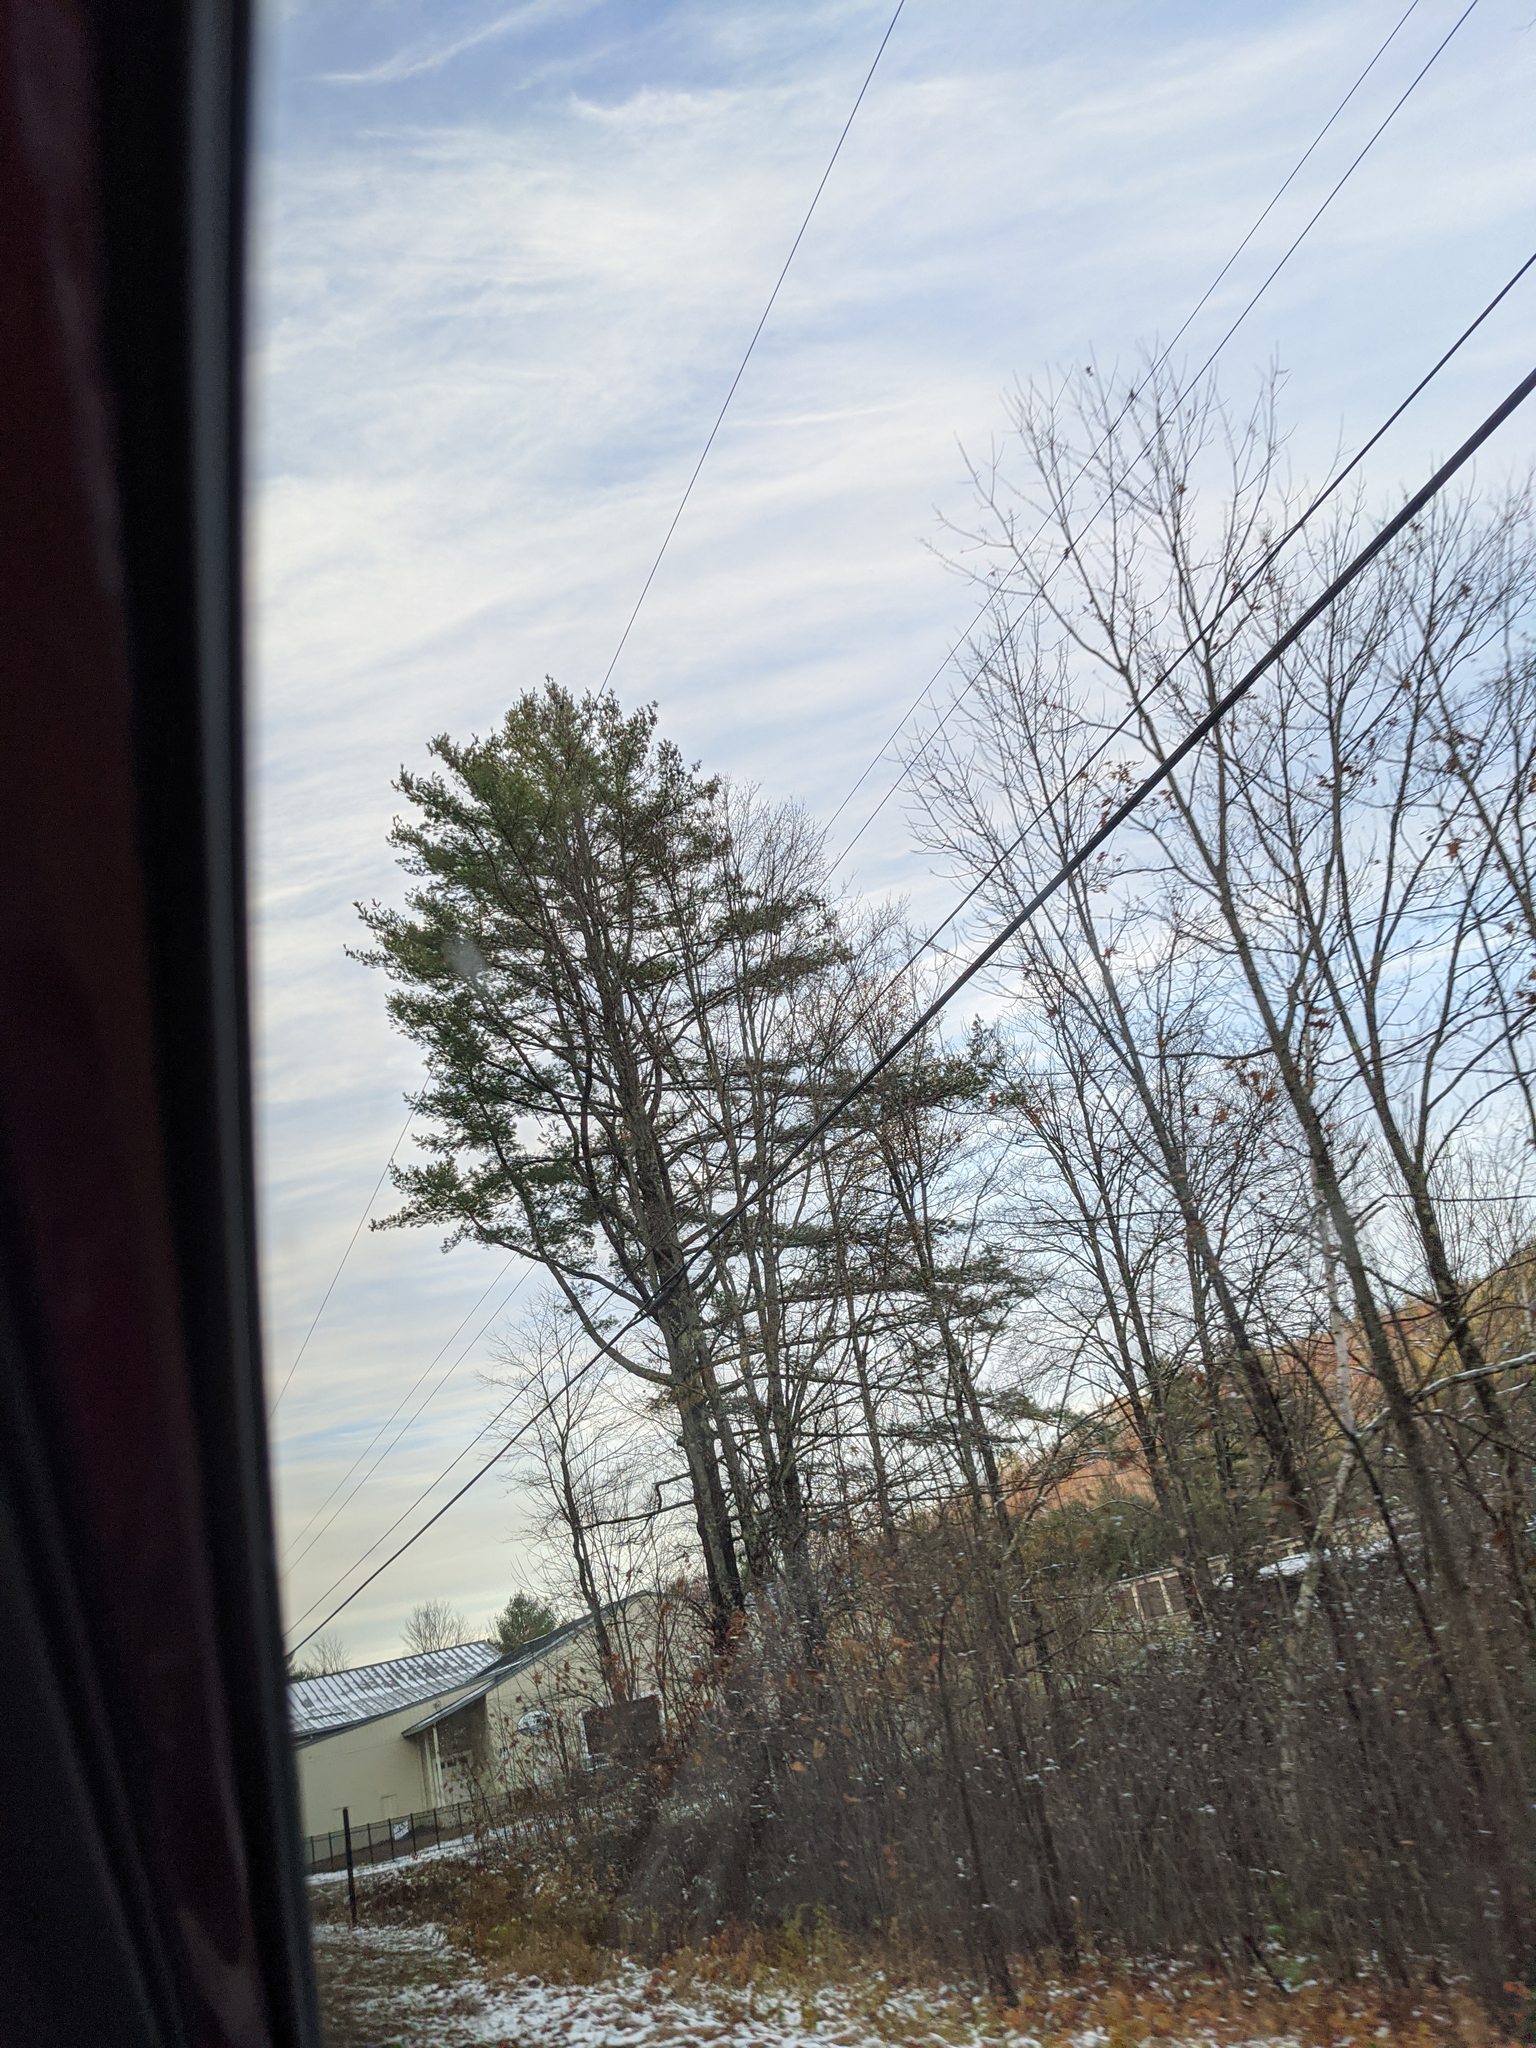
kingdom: Plantae
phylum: Tracheophyta
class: Pinopsida
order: Pinales
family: Pinaceae
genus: Pinus
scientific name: Pinus strobus
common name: Weymouth pine
